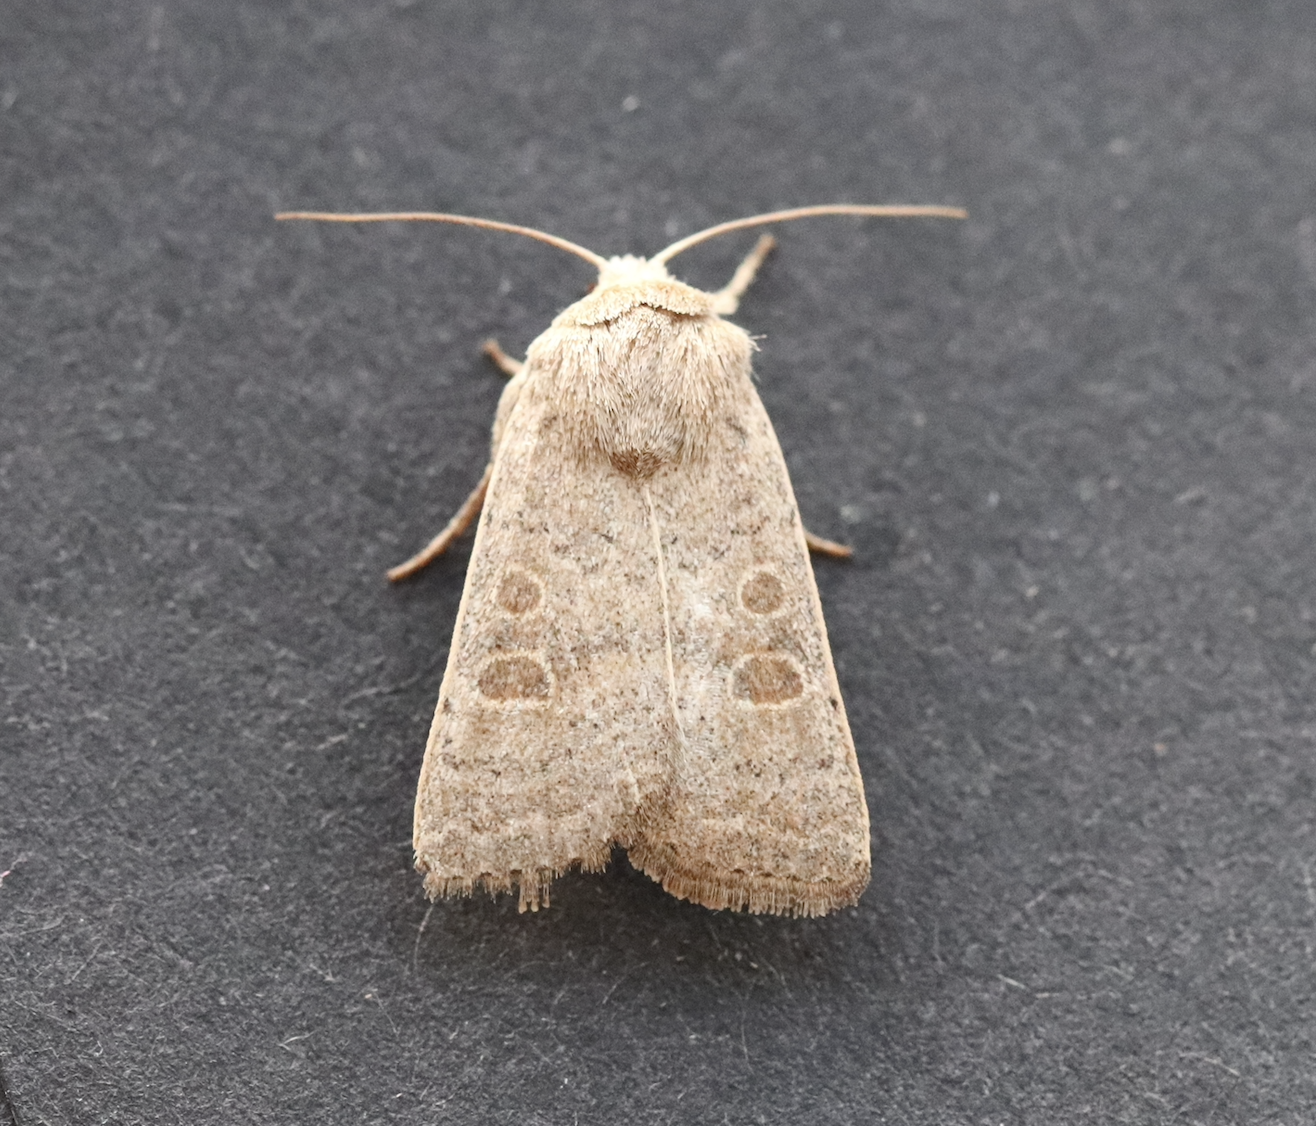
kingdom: Animalia
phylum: Arthropoda
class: Insecta
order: Lepidoptera
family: Noctuidae
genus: Hoplodrina
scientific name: Hoplodrina ambigua
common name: Vine's rustic
